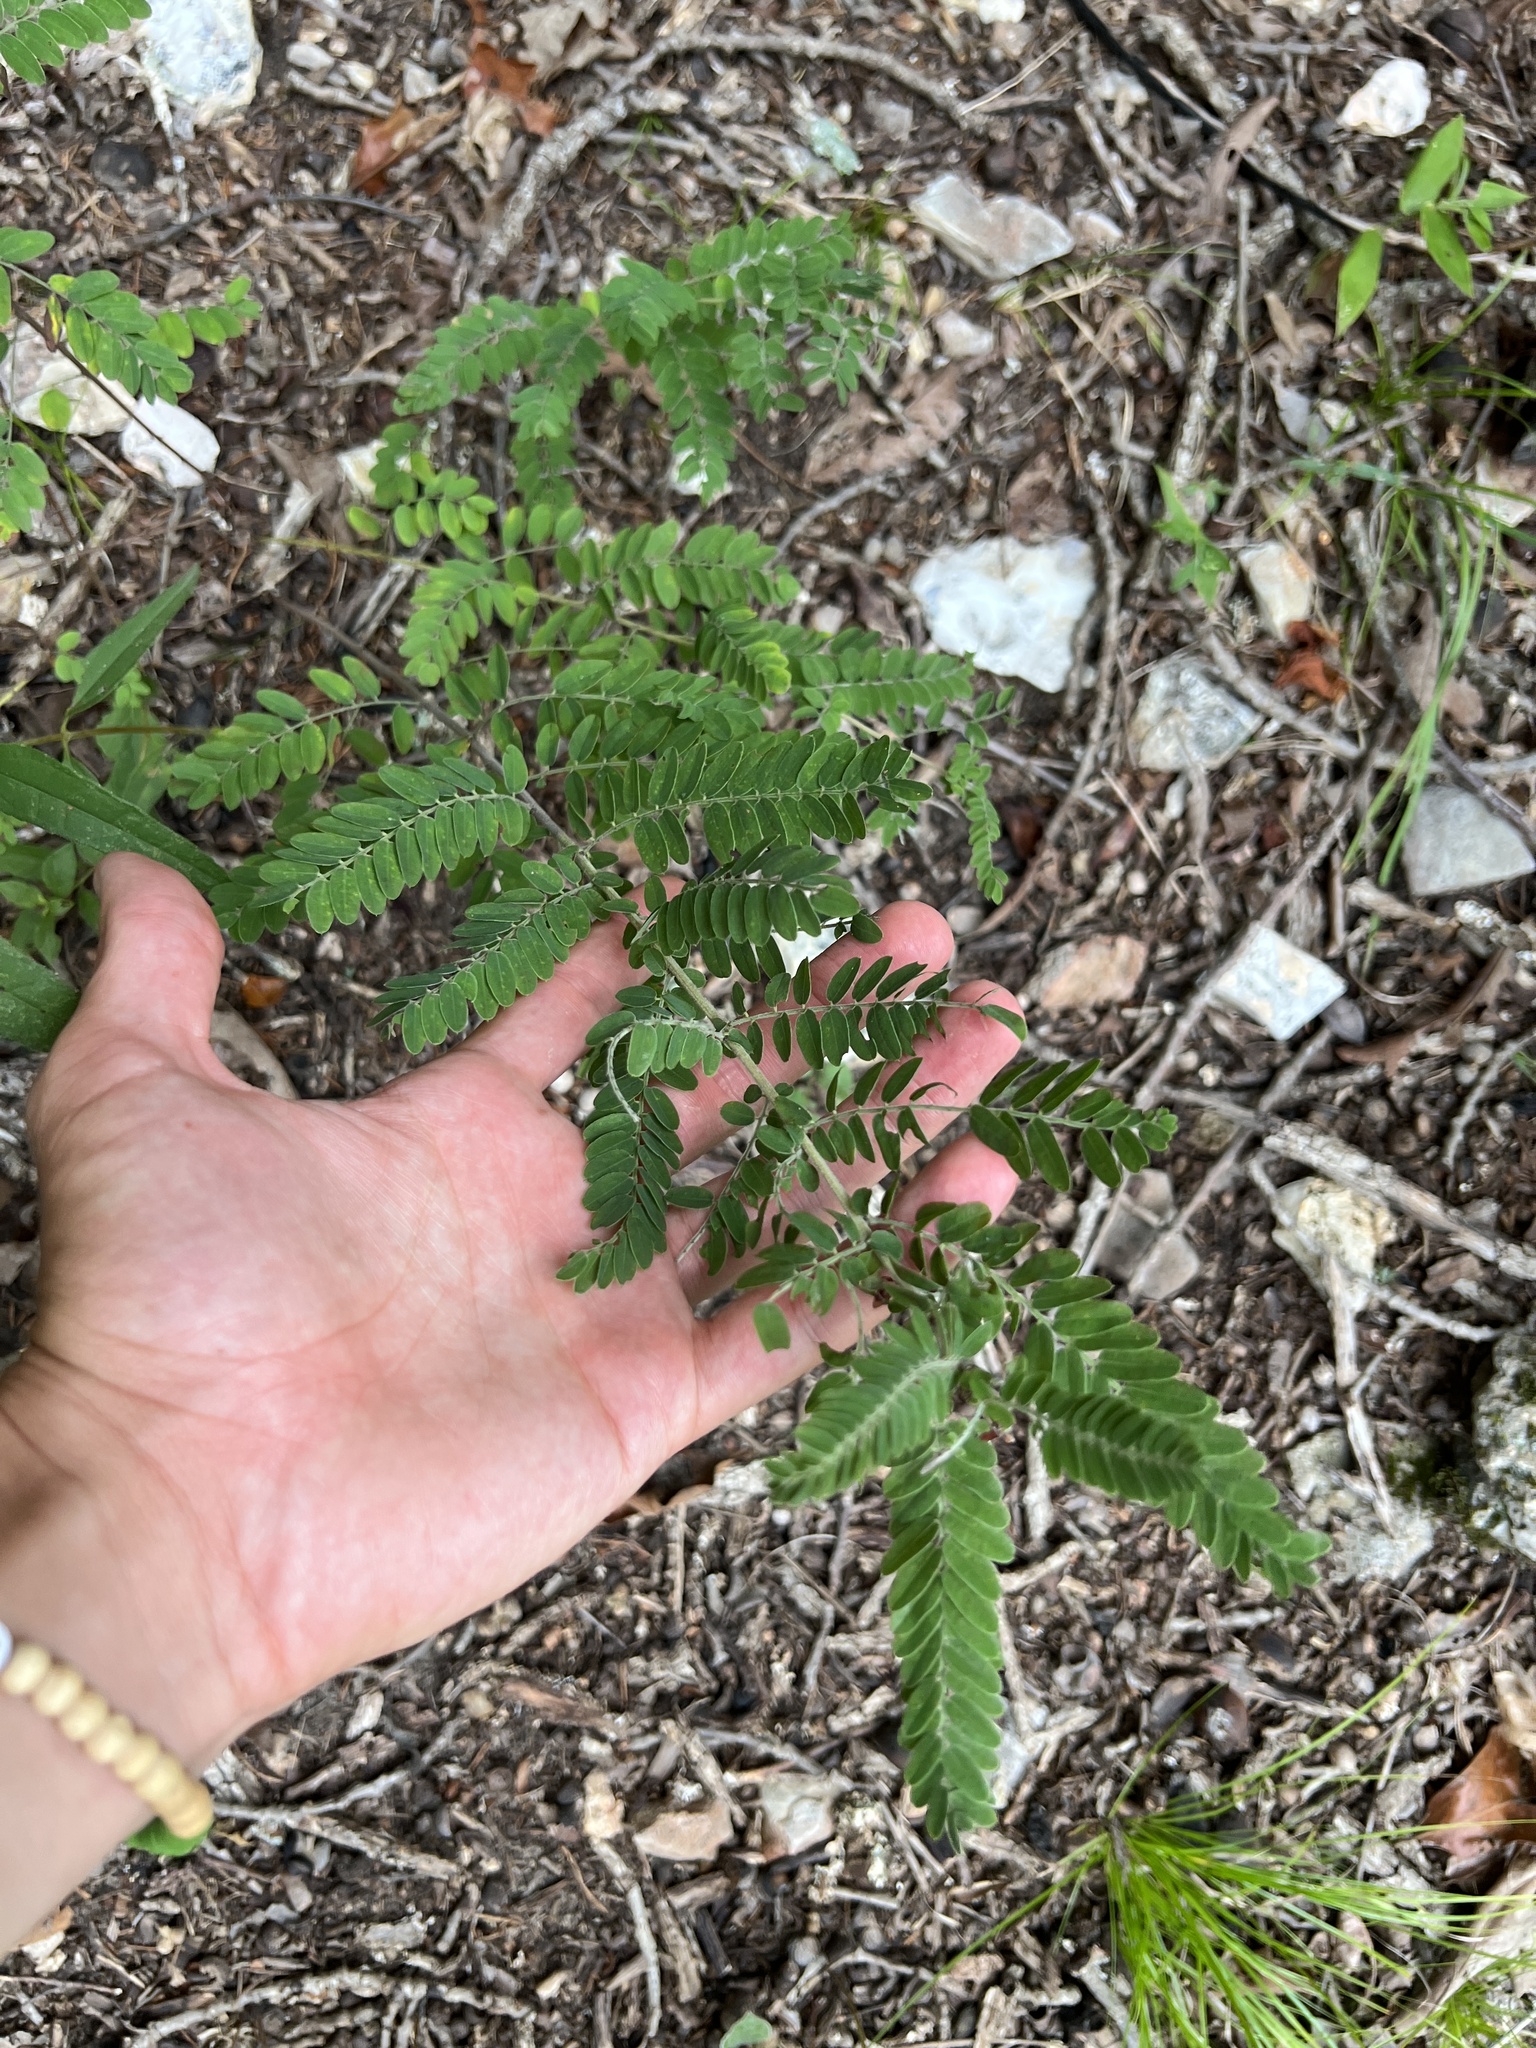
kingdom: Plantae
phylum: Tracheophyta
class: Magnoliopsida
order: Fabales
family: Fabaceae
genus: Amorpha
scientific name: Amorpha canescens
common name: Leadplant
